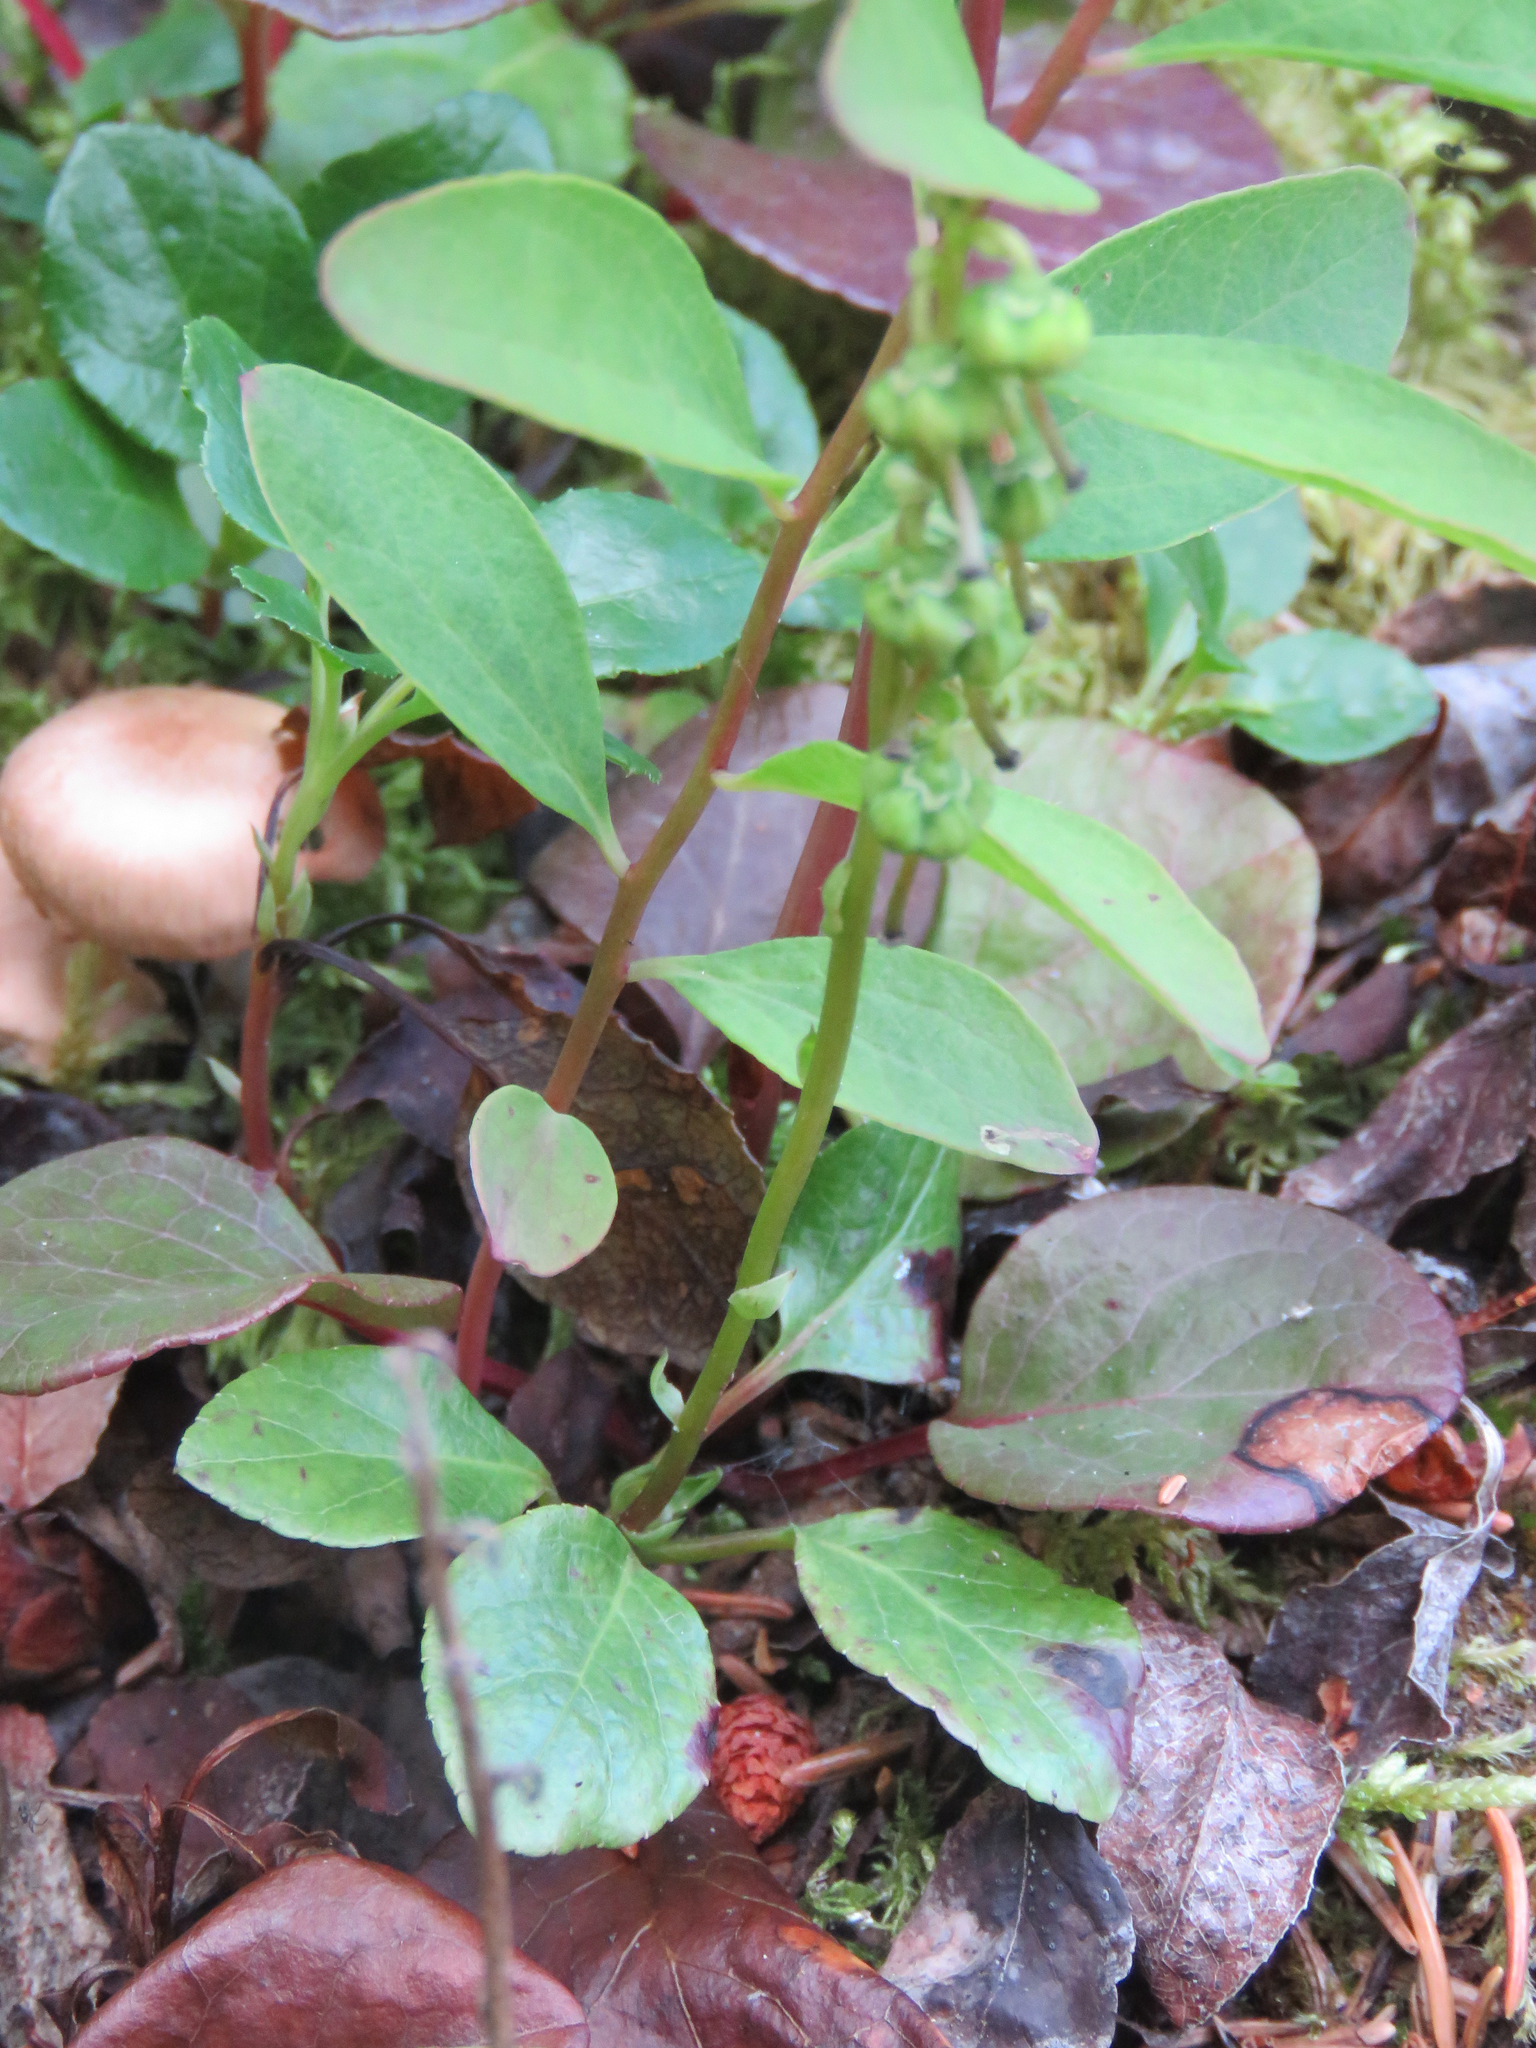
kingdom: Plantae
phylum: Tracheophyta
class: Magnoliopsida
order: Ericales
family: Ericaceae
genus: Orthilia
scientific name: Orthilia secunda
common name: One-sided orthilia
